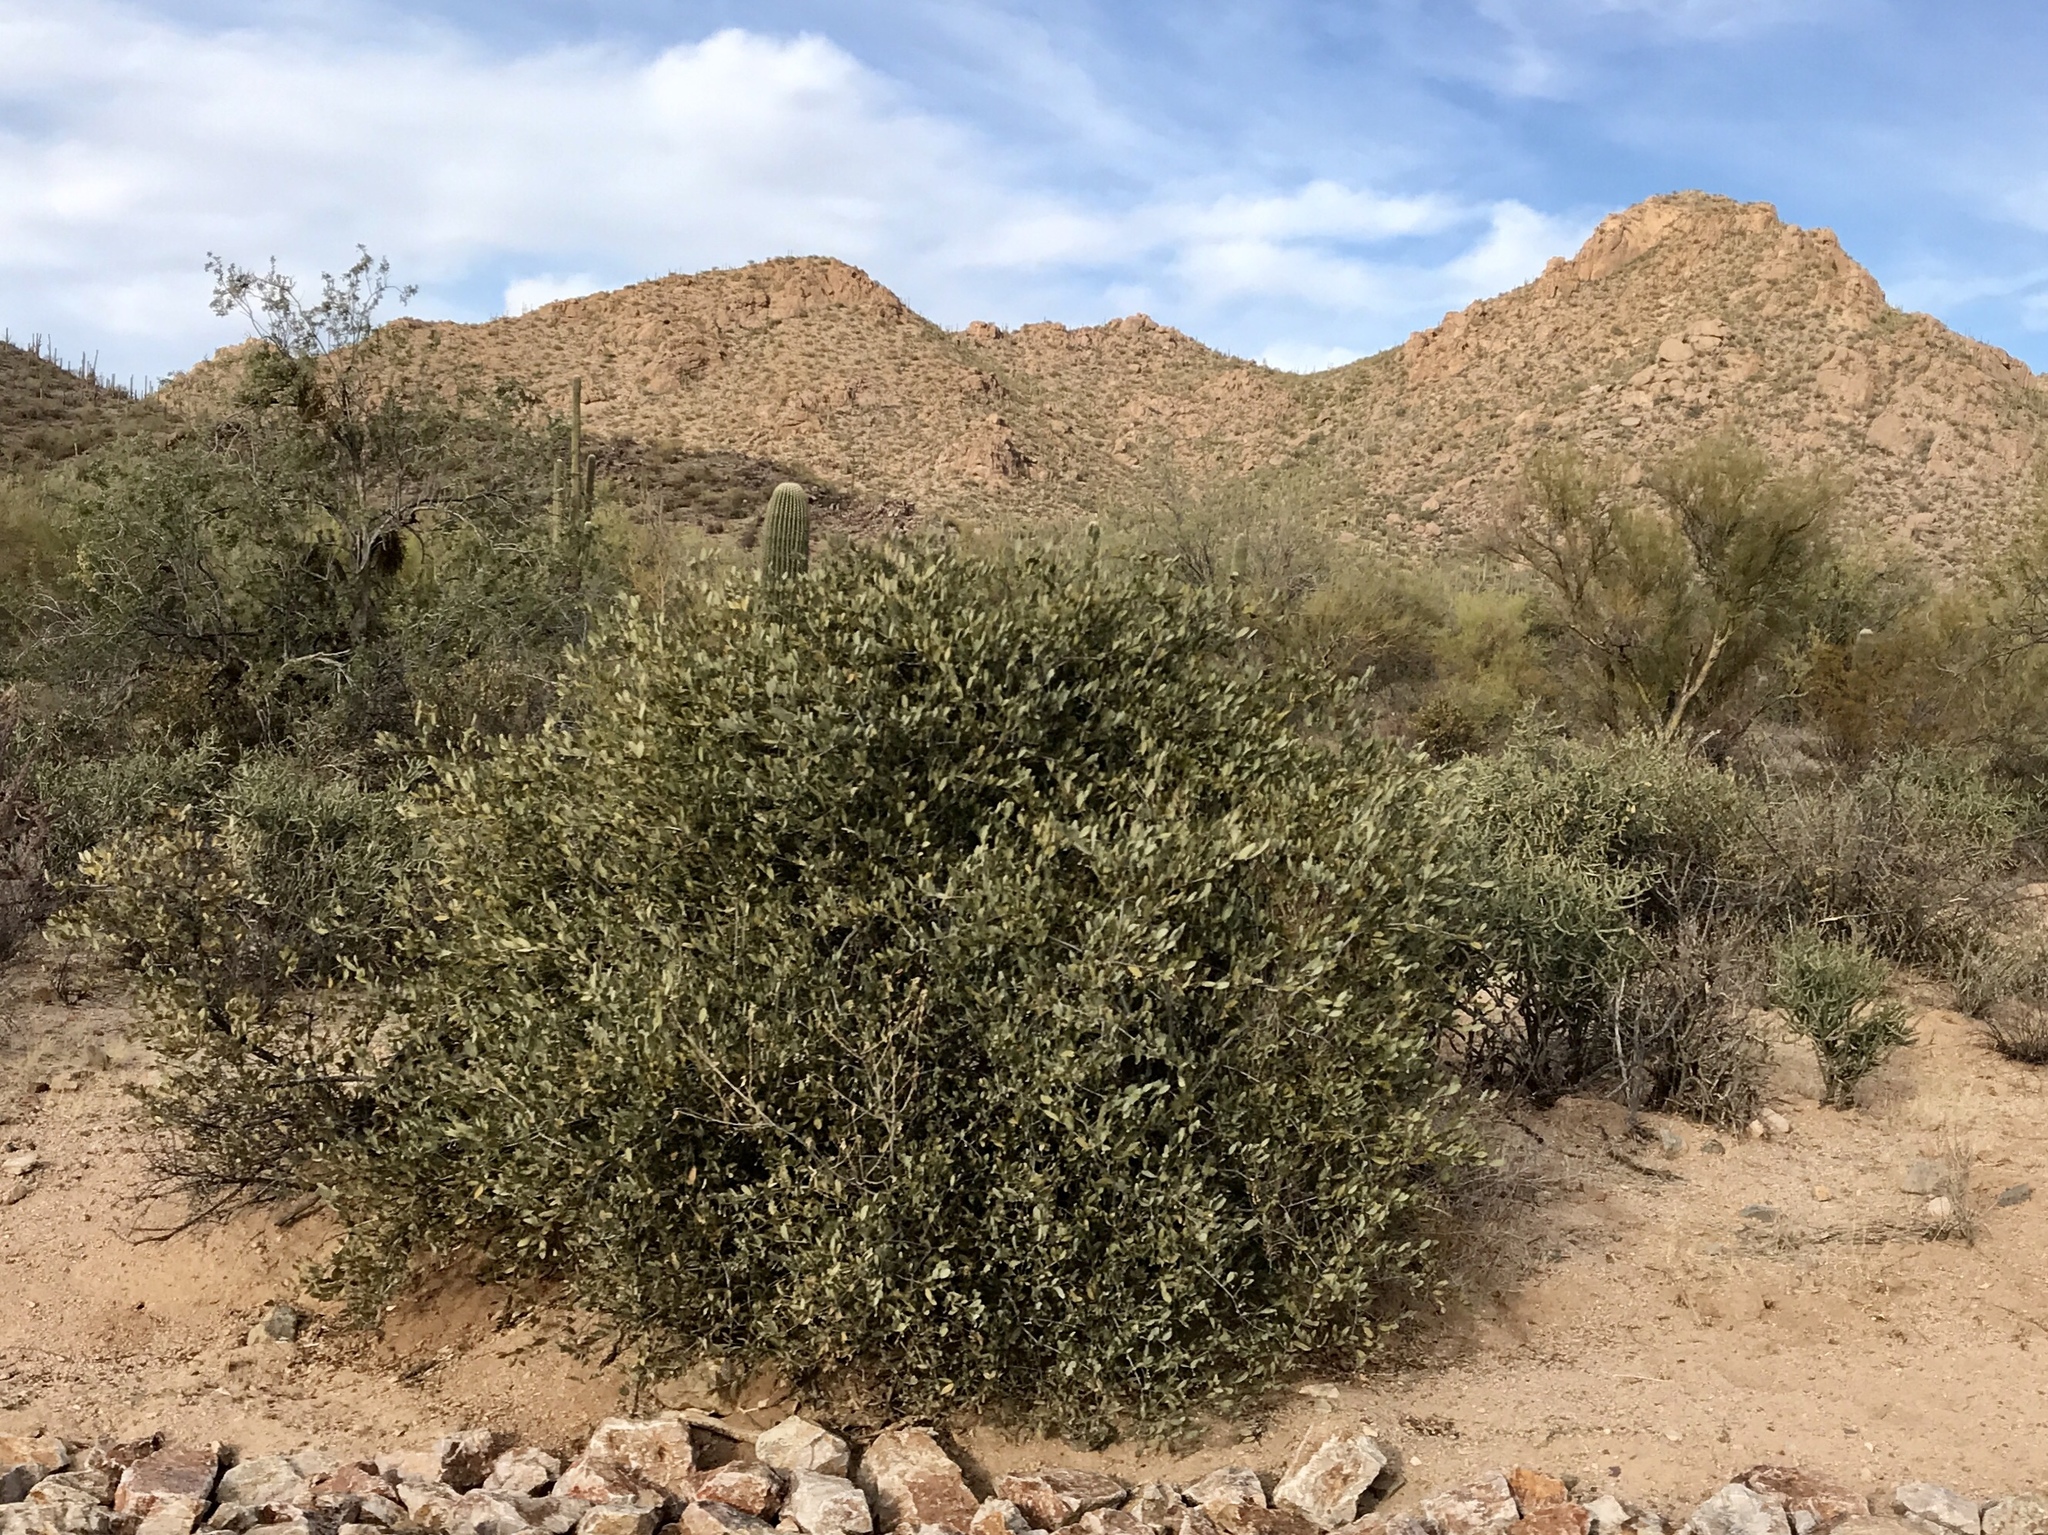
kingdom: Plantae
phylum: Tracheophyta
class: Magnoliopsida
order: Caryophyllales
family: Simmondsiaceae
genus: Simmondsia
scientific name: Simmondsia chinensis
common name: Jojoba
